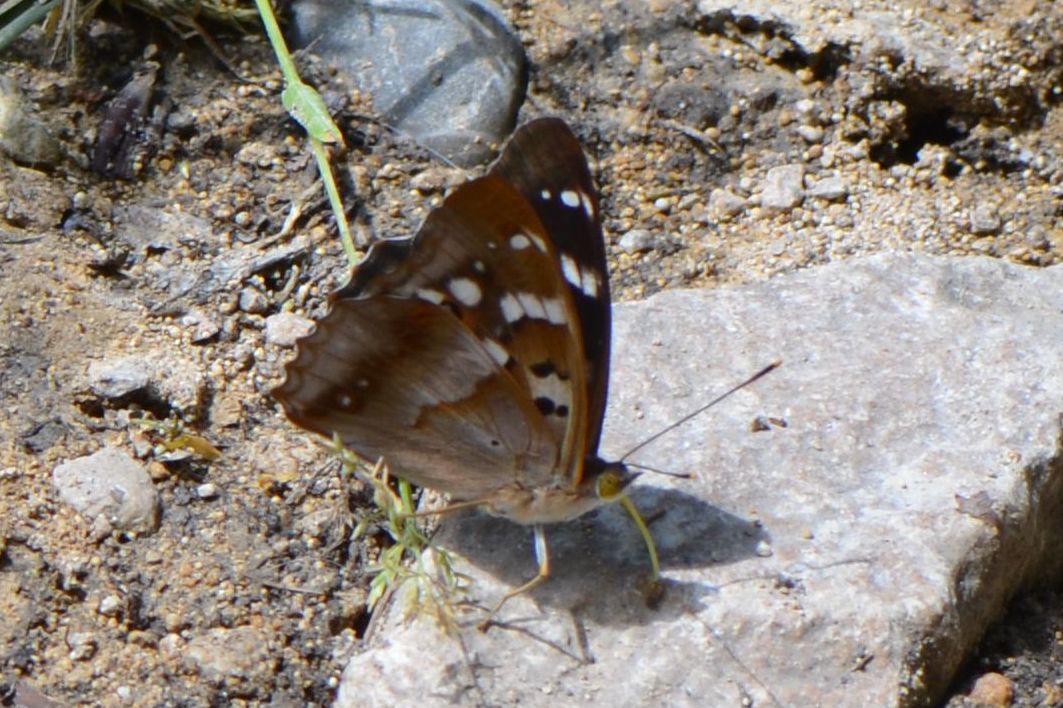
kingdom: Animalia
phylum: Arthropoda
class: Insecta
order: Lepidoptera
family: Nymphalidae
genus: Apatura
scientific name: Apatura ilia
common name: Lesser purple emperor
